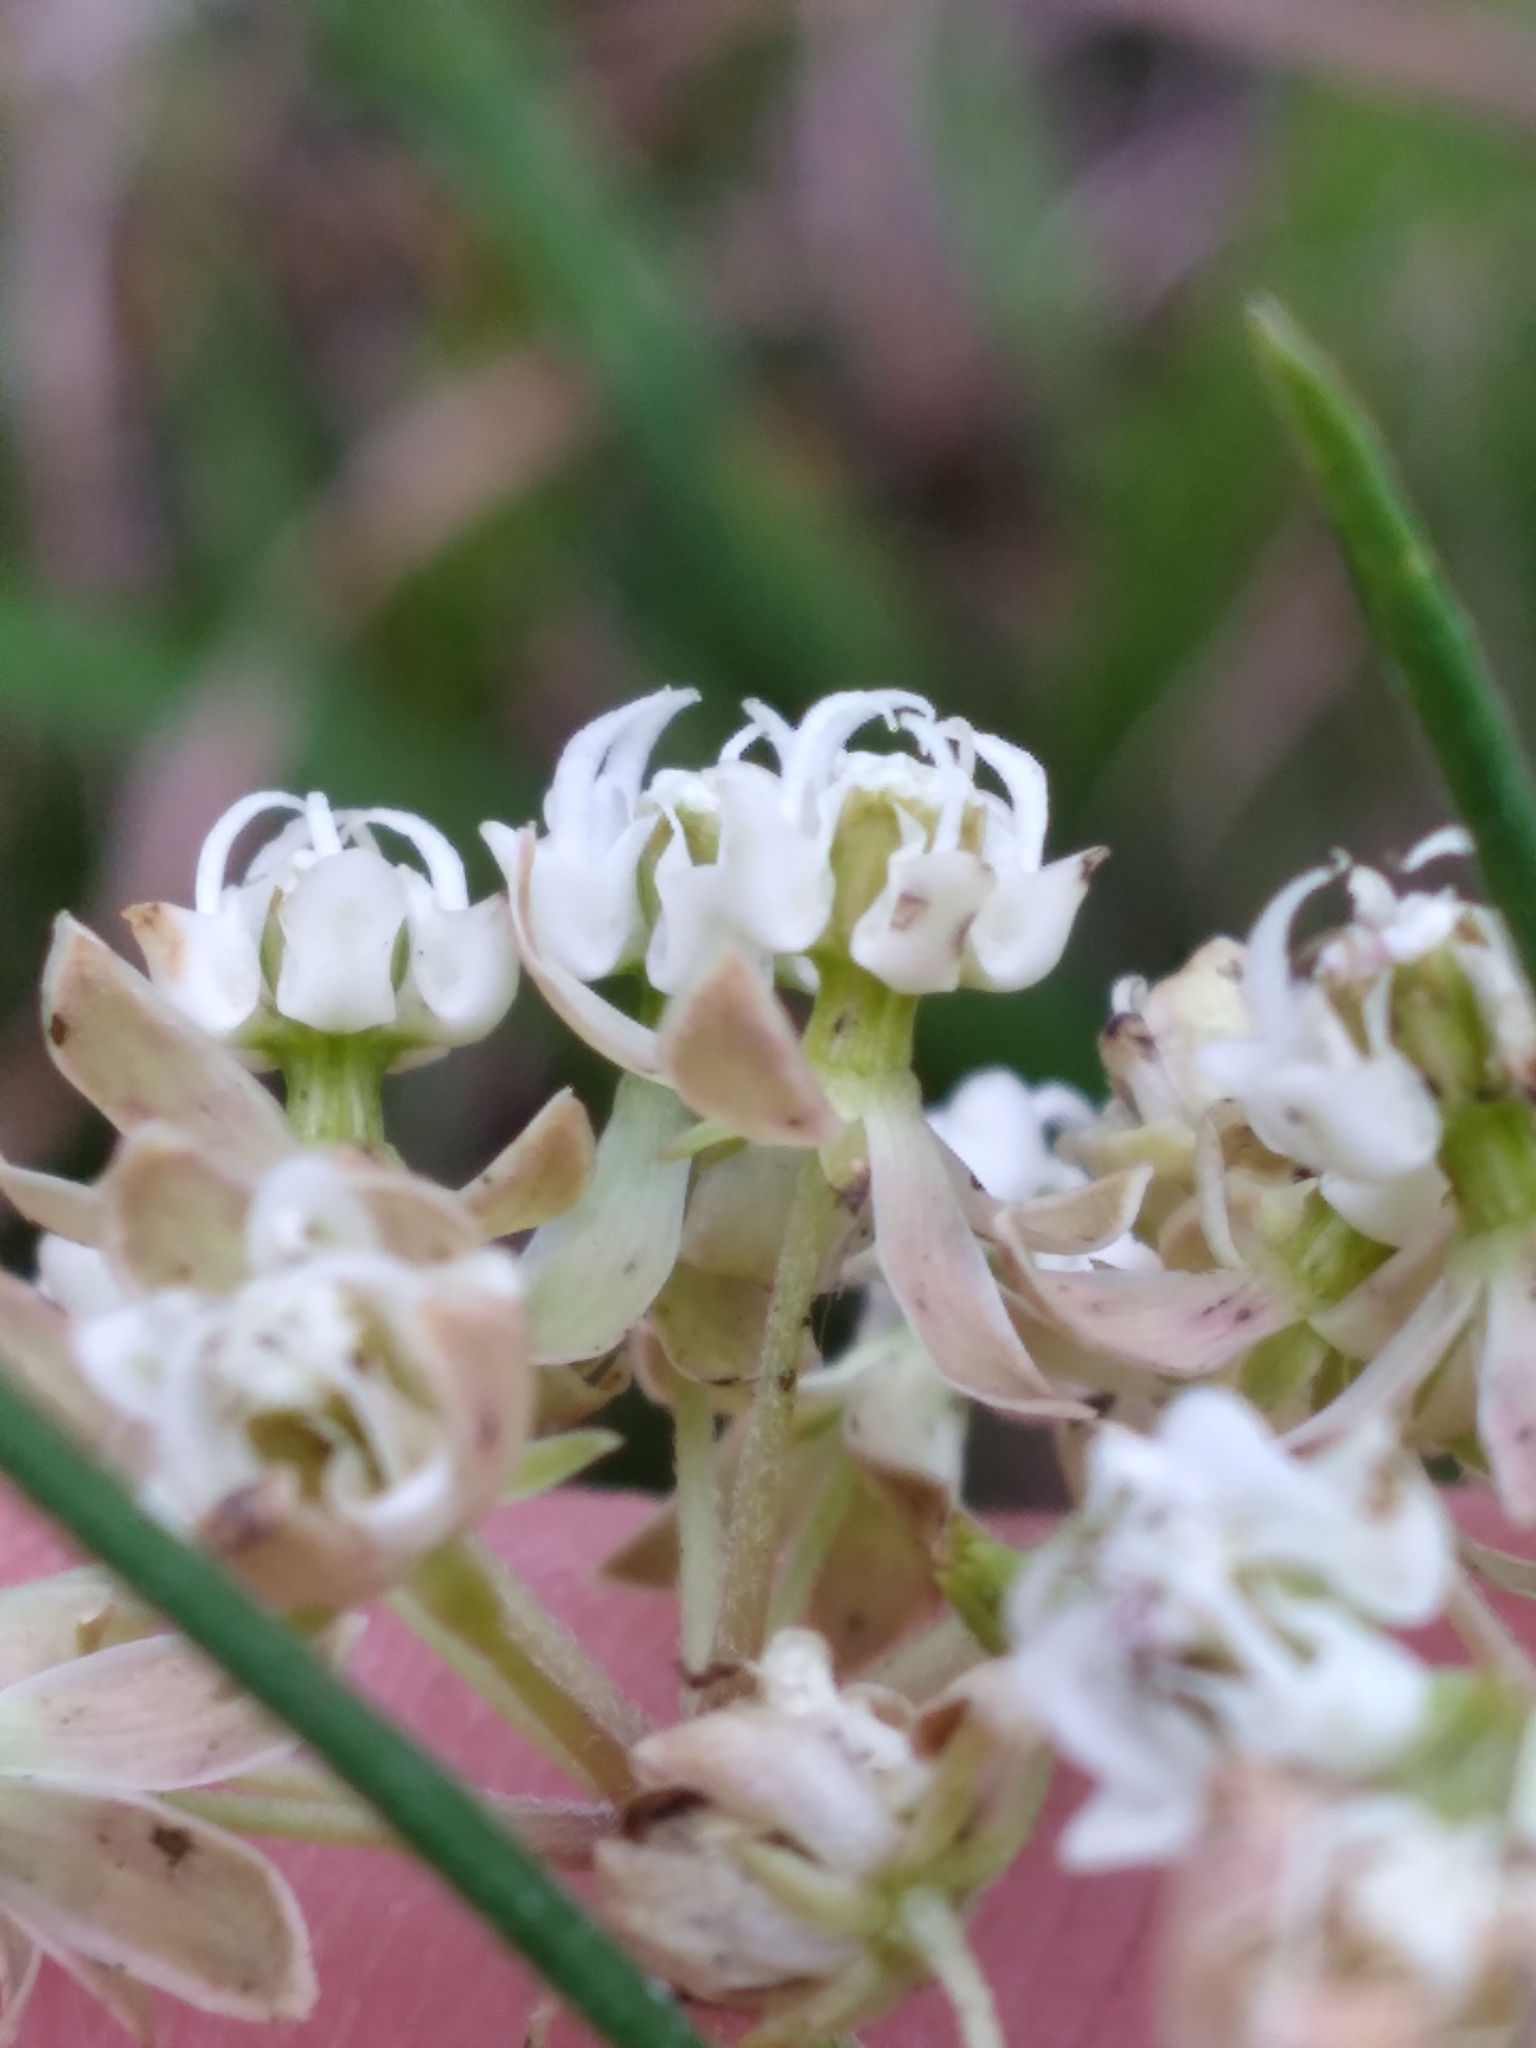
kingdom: Plantae
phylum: Tracheophyta
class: Magnoliopsida
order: Gentianales
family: Apocynaceae
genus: Asclepias
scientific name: Asclepias verticillata
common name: Eastern whorled milkweed
